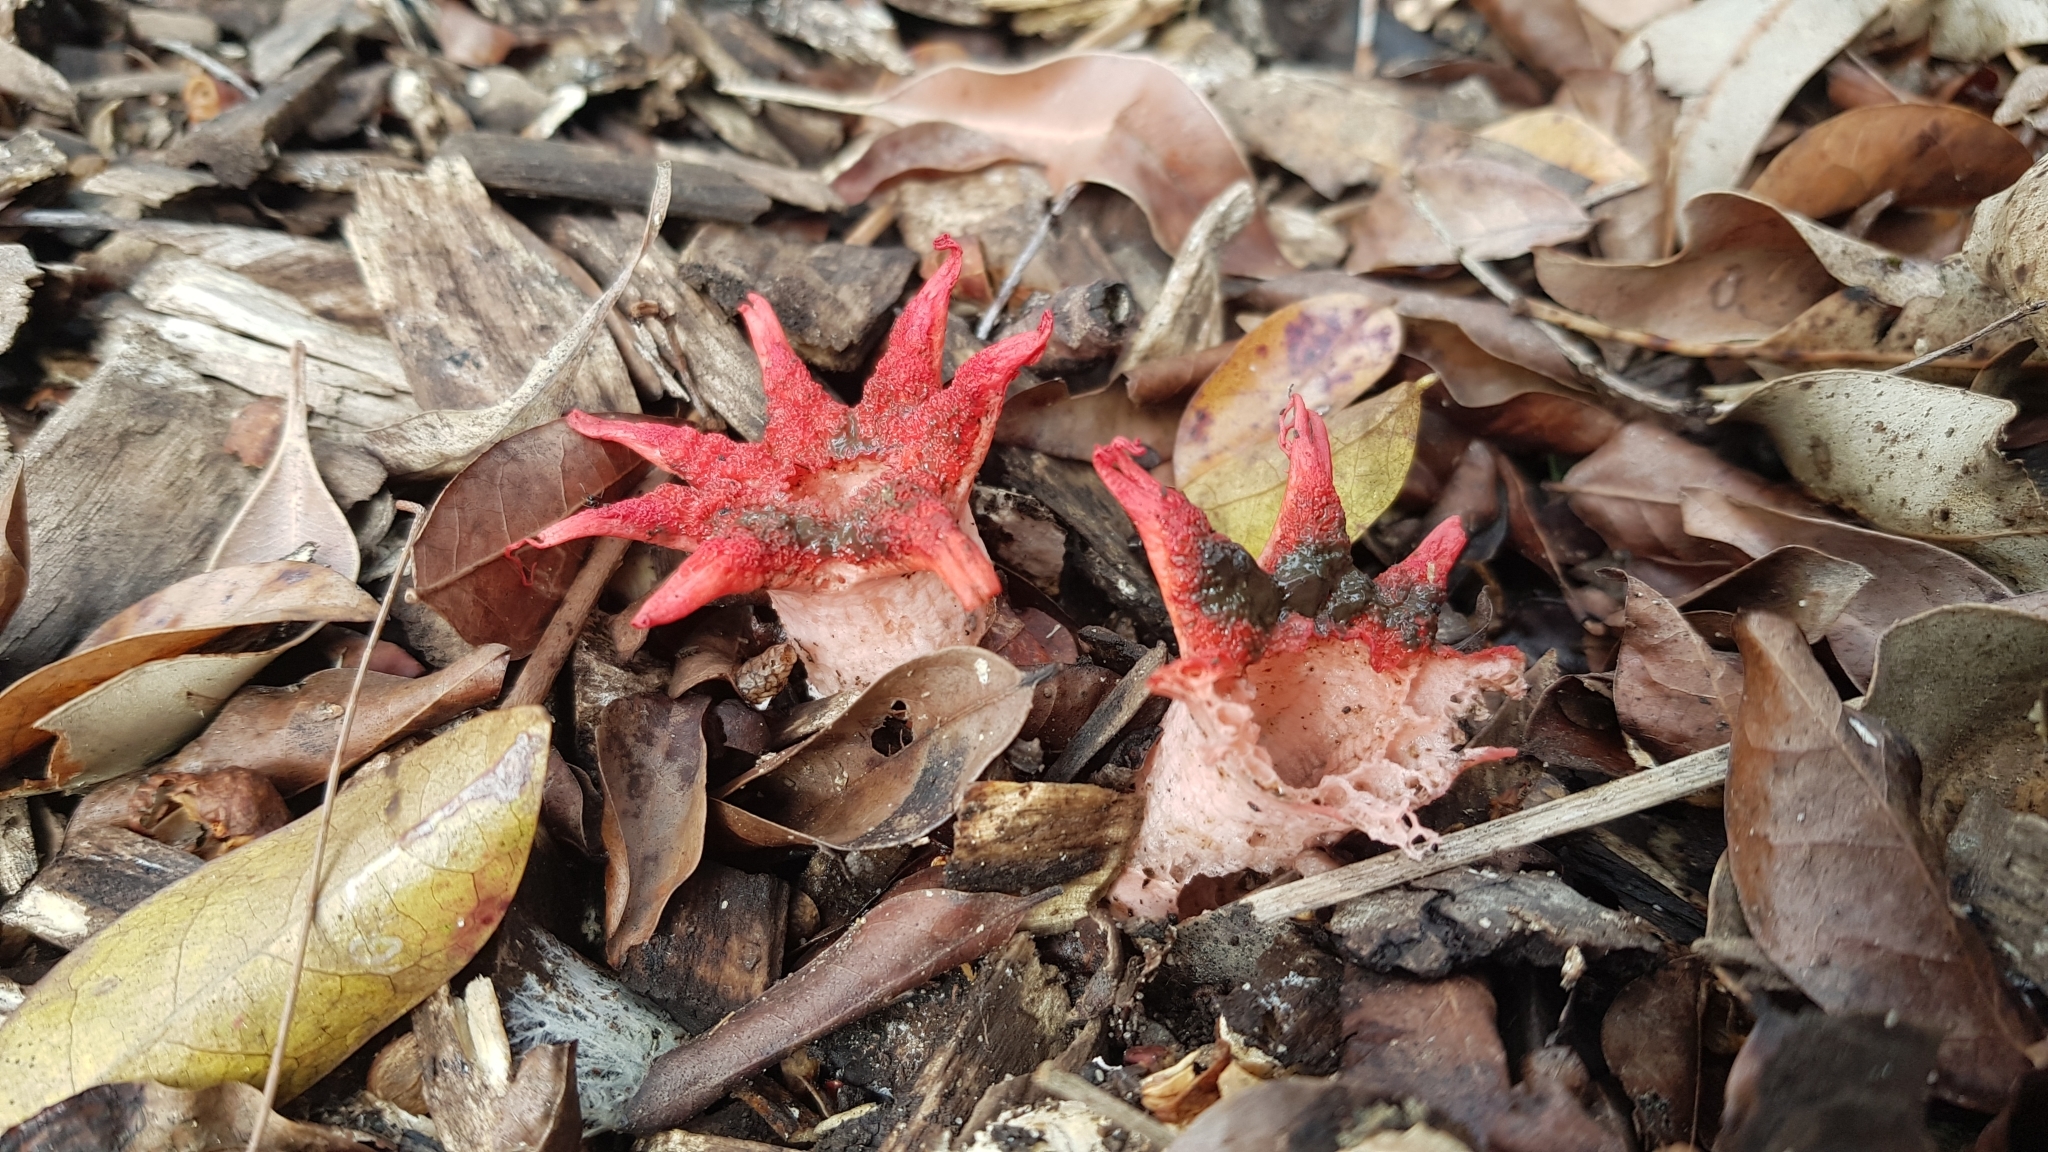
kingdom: Fungi
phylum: Basidiomycota
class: Agaricomycetes
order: Phallales
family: Phallaceae
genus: Aseroe
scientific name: Aseroe rubra
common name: Starfish fungus
